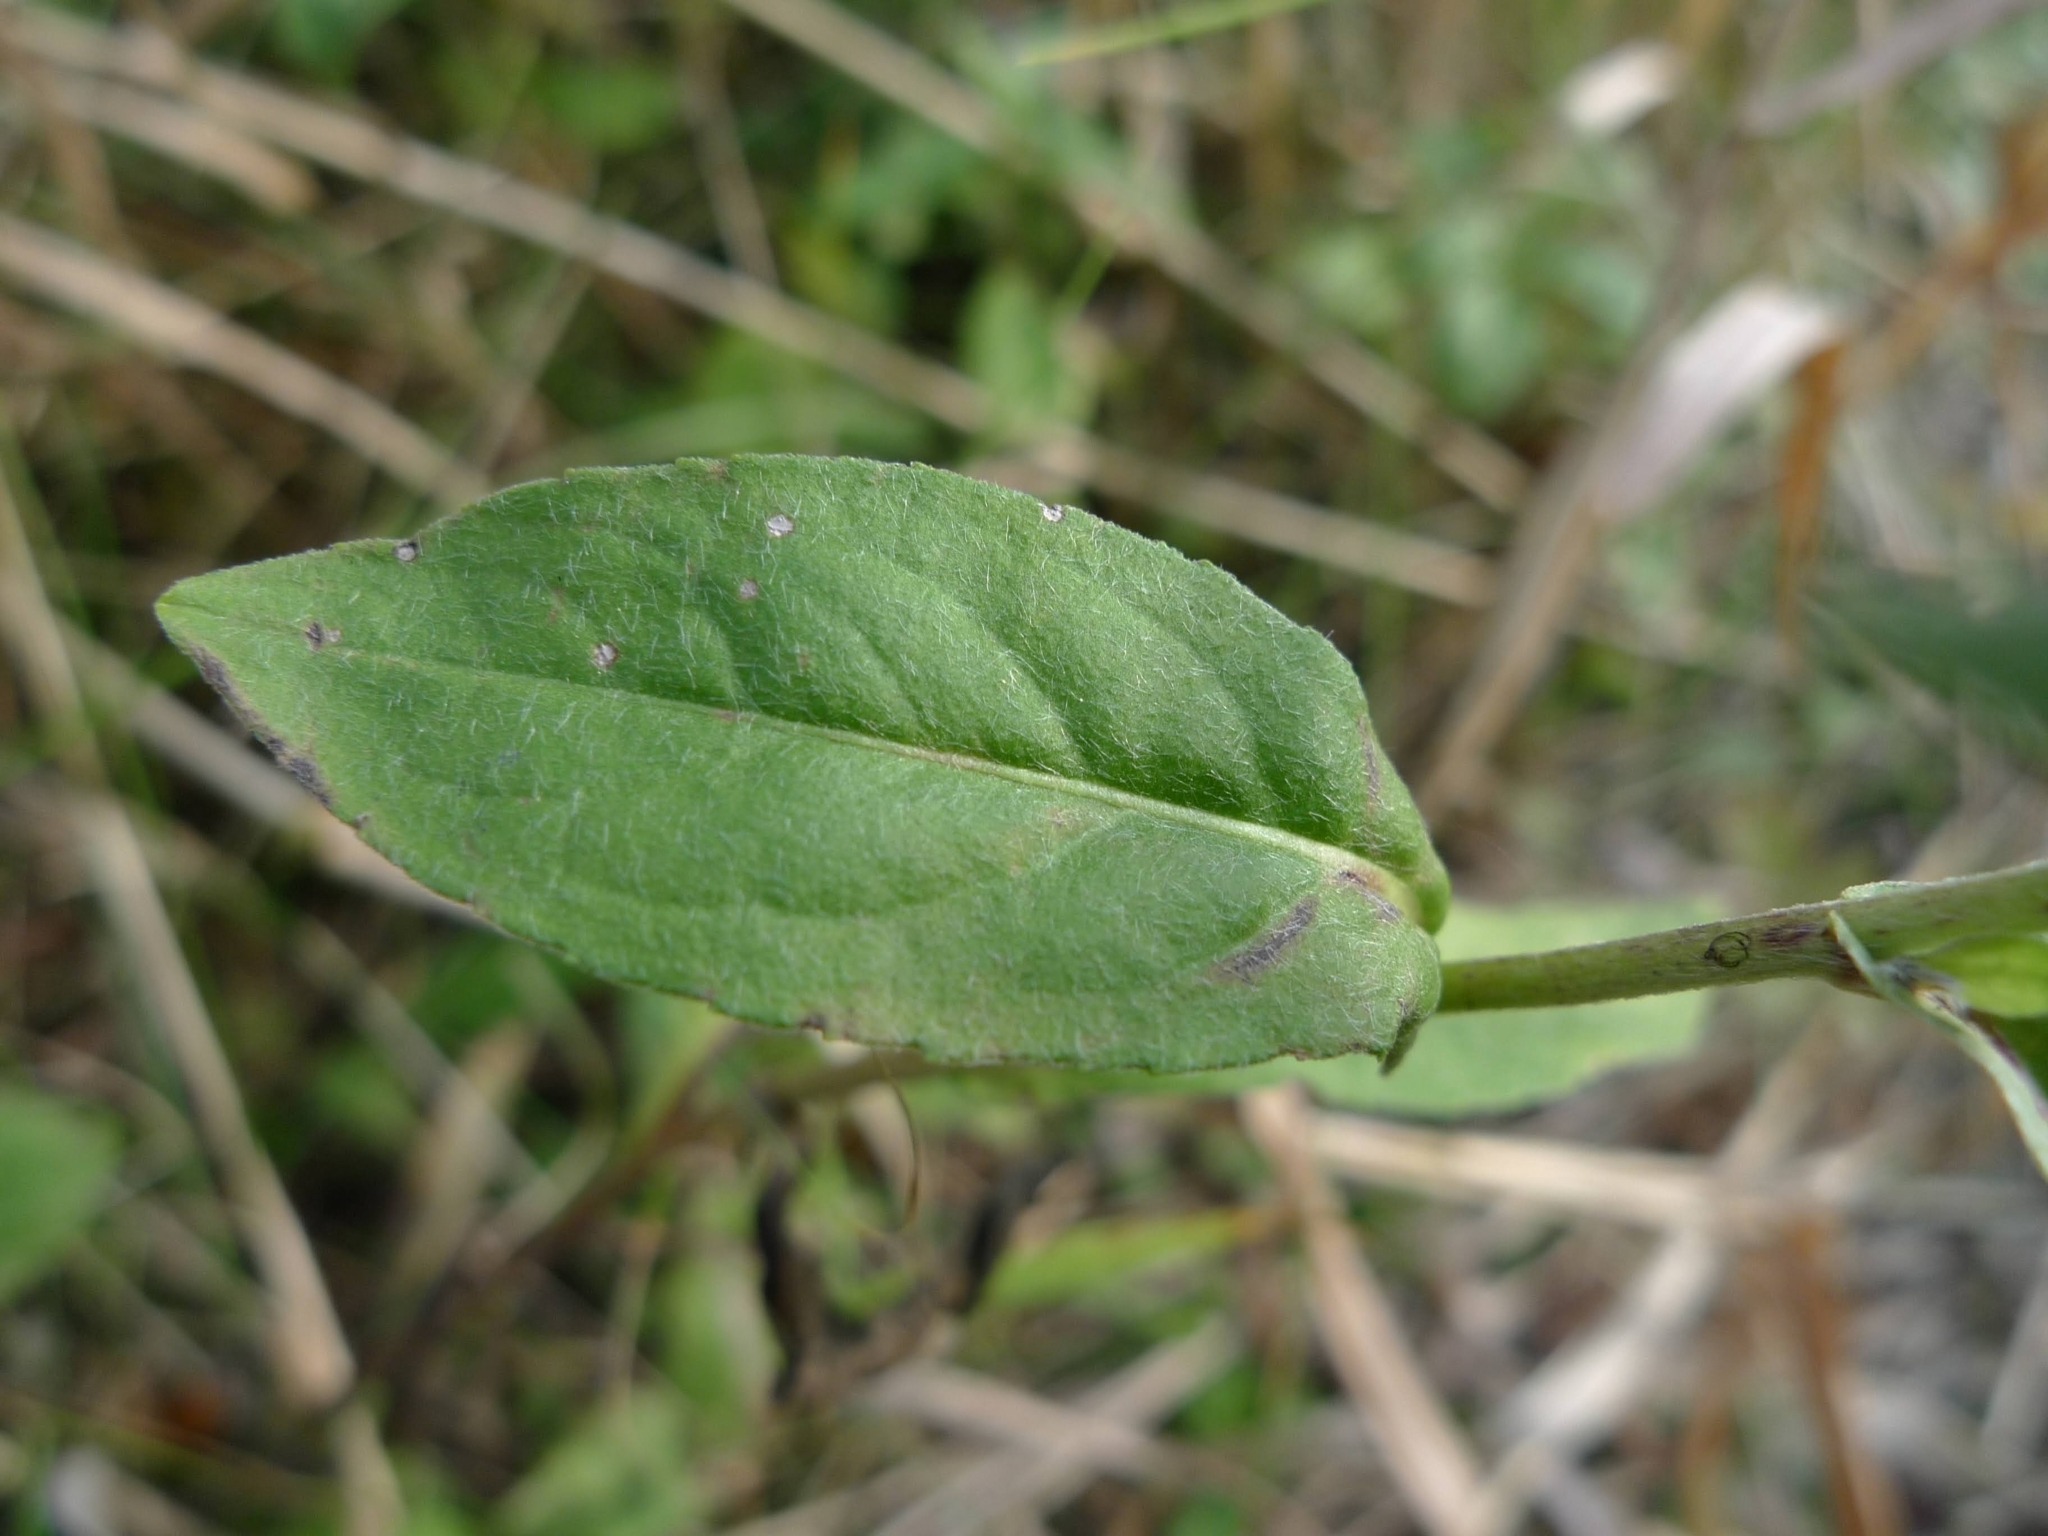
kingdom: Plantae
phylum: Tracheophyta
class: Magnoliopsida
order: Asterales
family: Asteraceae
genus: Pentanema
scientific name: Pentanema britannicum
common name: British elecampane
